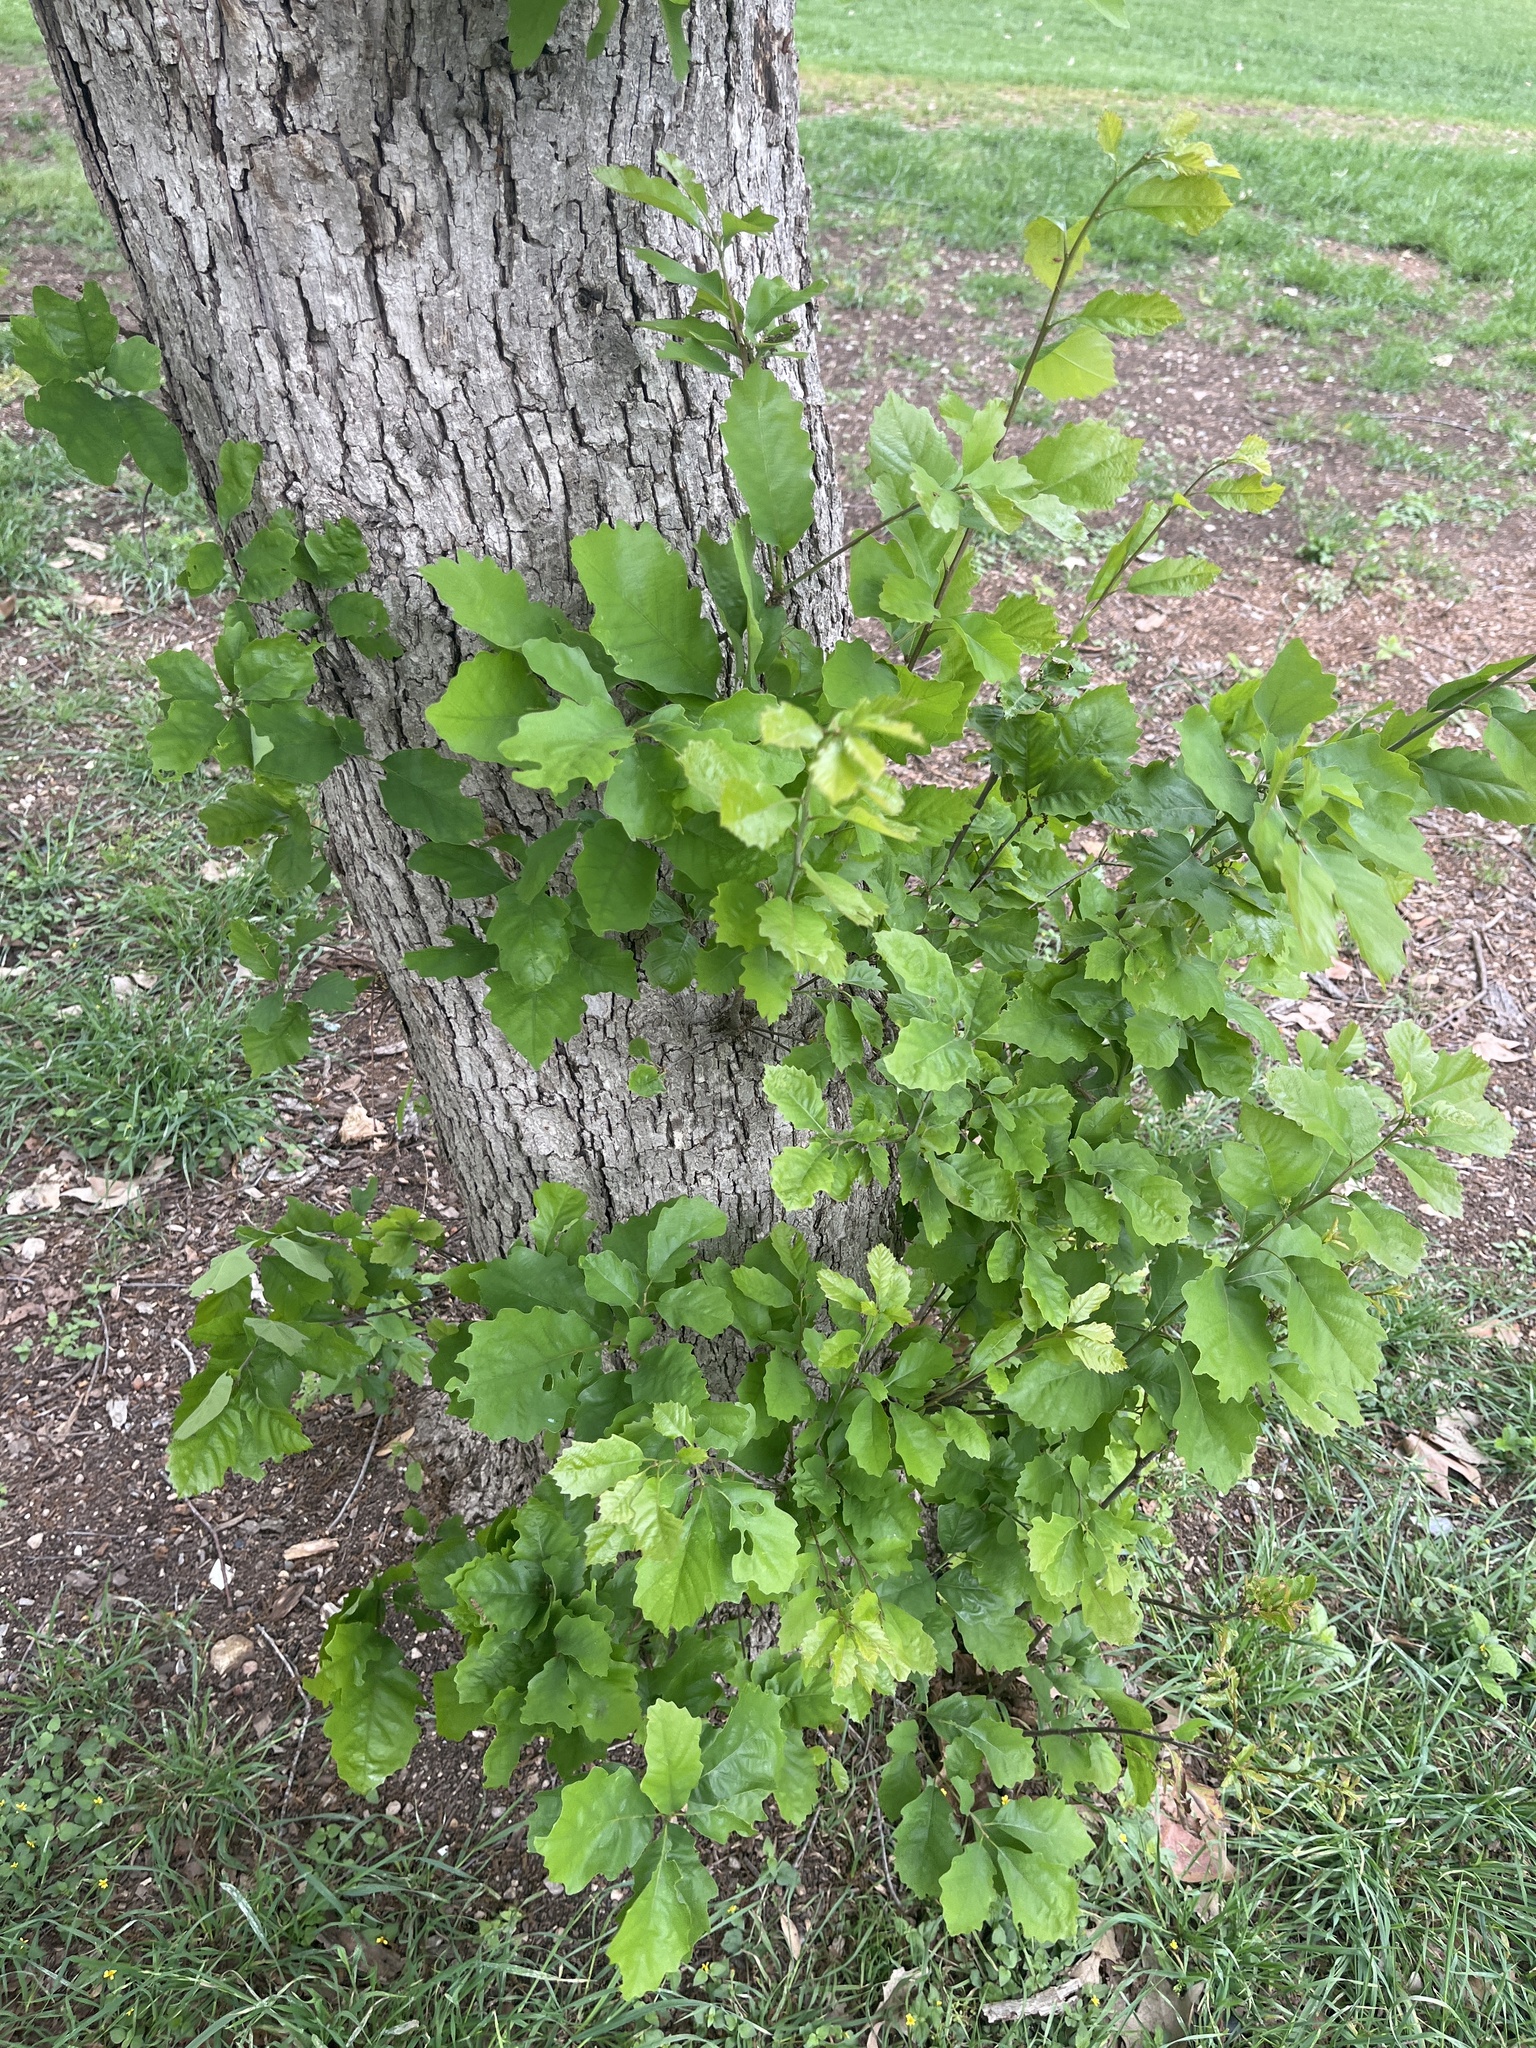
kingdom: Plantae
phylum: Tracheophyta
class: Magnoliopsida
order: Fagales
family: Fagaceae
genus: Quercus
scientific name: Quercus muehlenbergii
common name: Chinkapin oak
